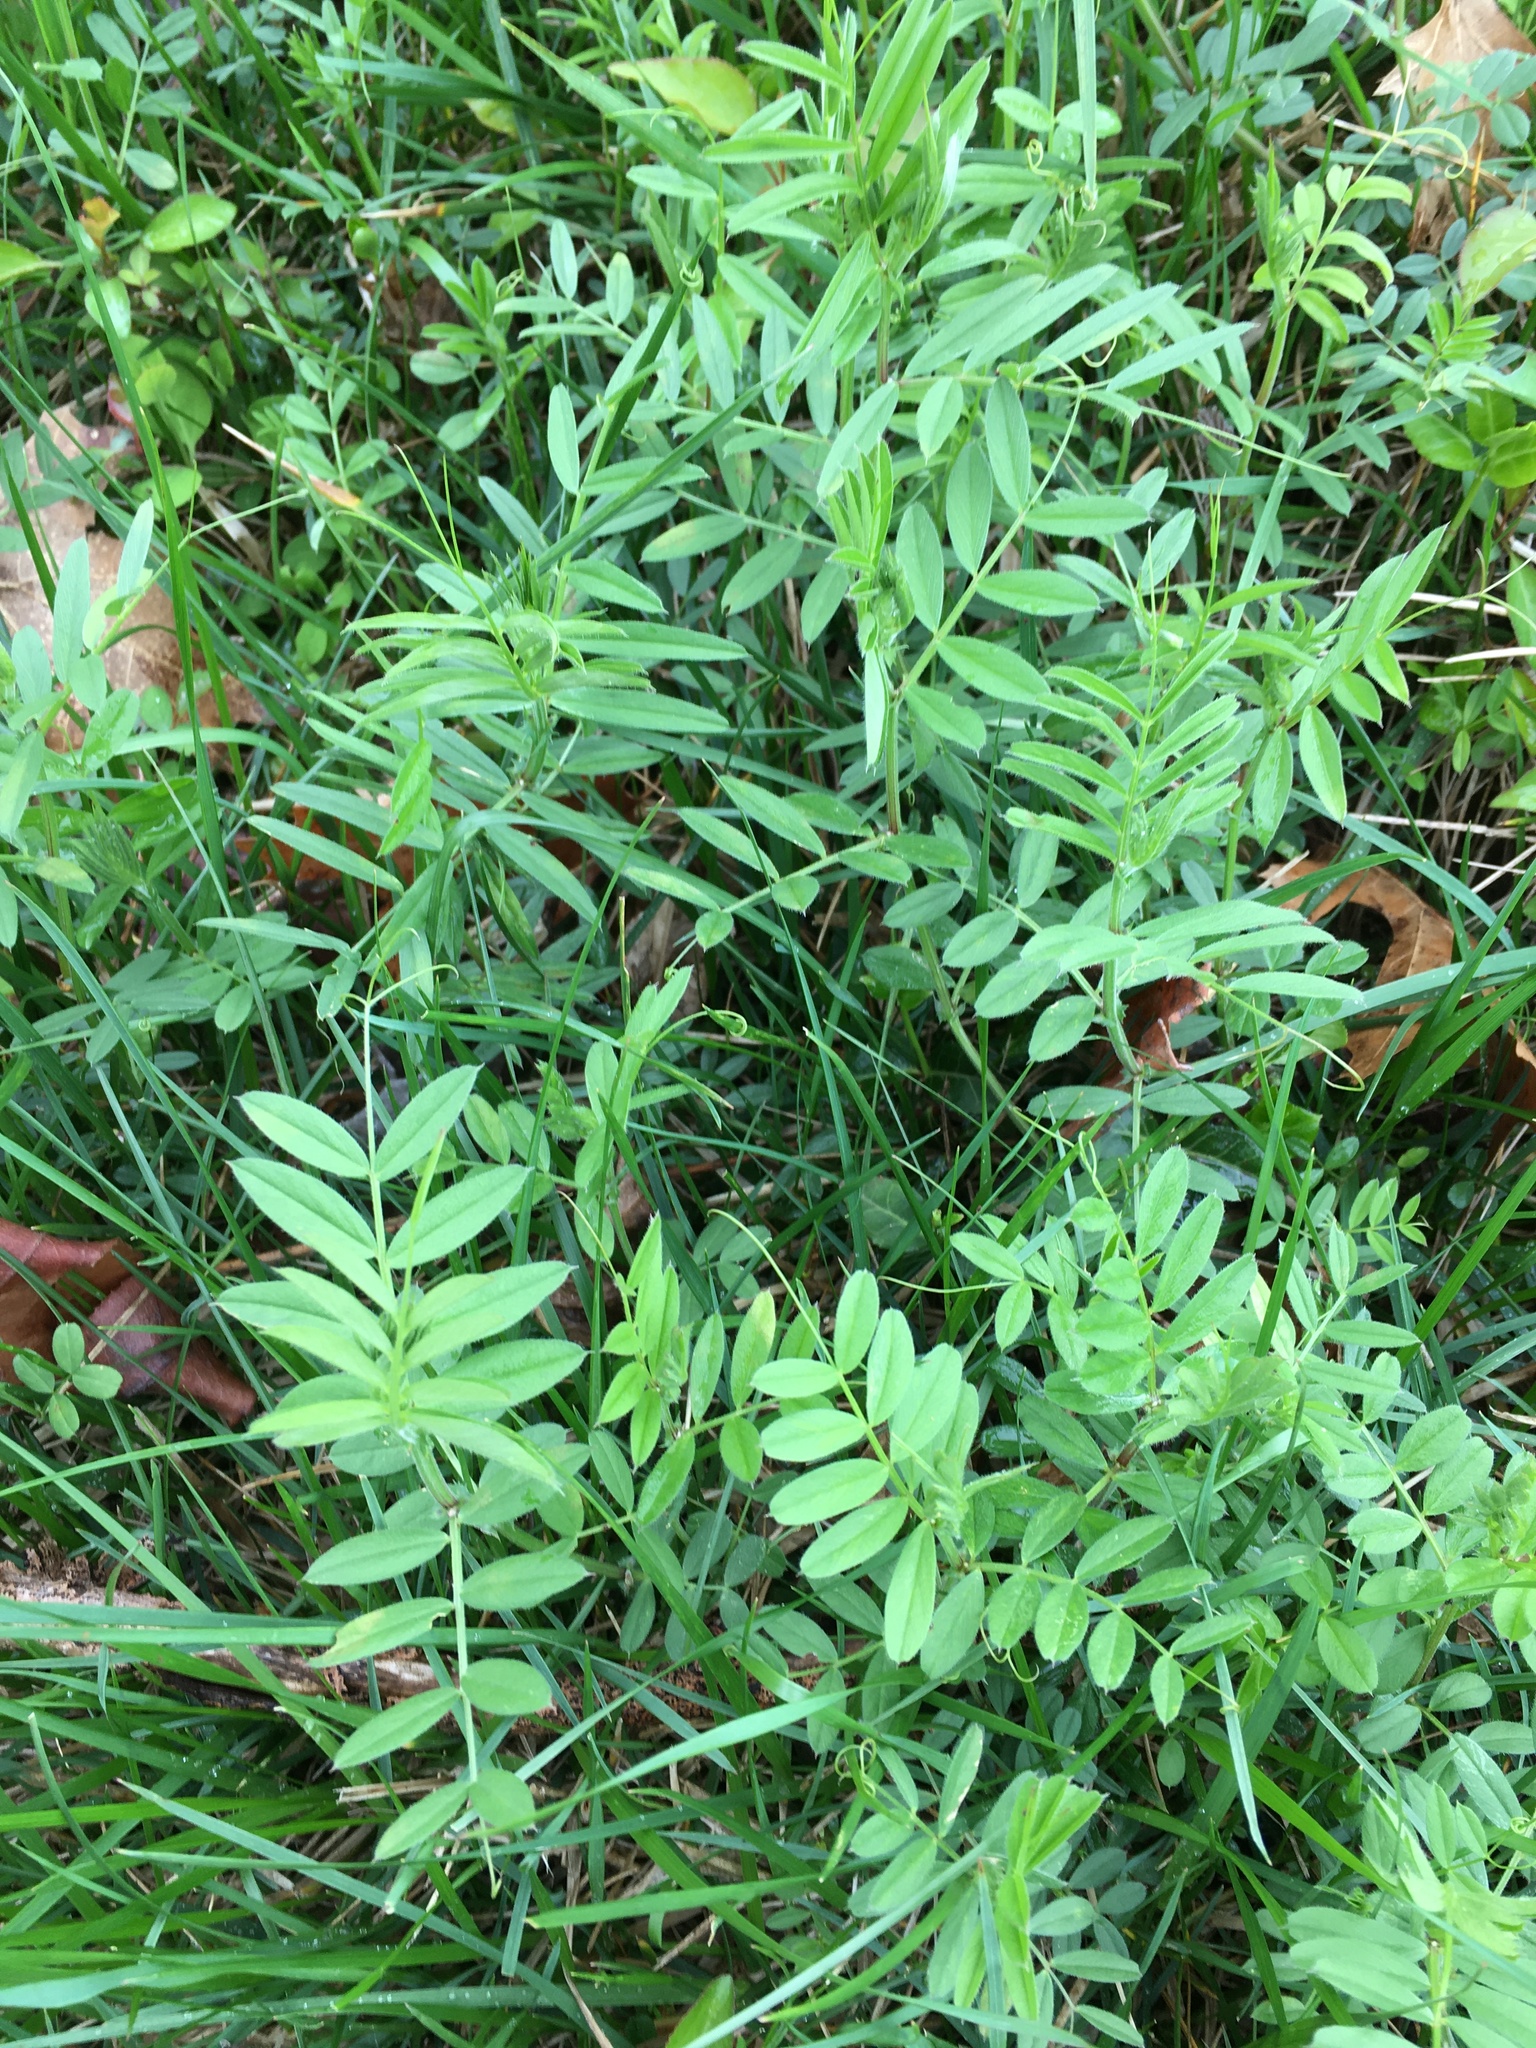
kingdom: Plantae
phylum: Tracheophyta
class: Magnoliopsida
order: Fabales
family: Fabaceae
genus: Vicia
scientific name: Vicia sativa
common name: Garden vetch
